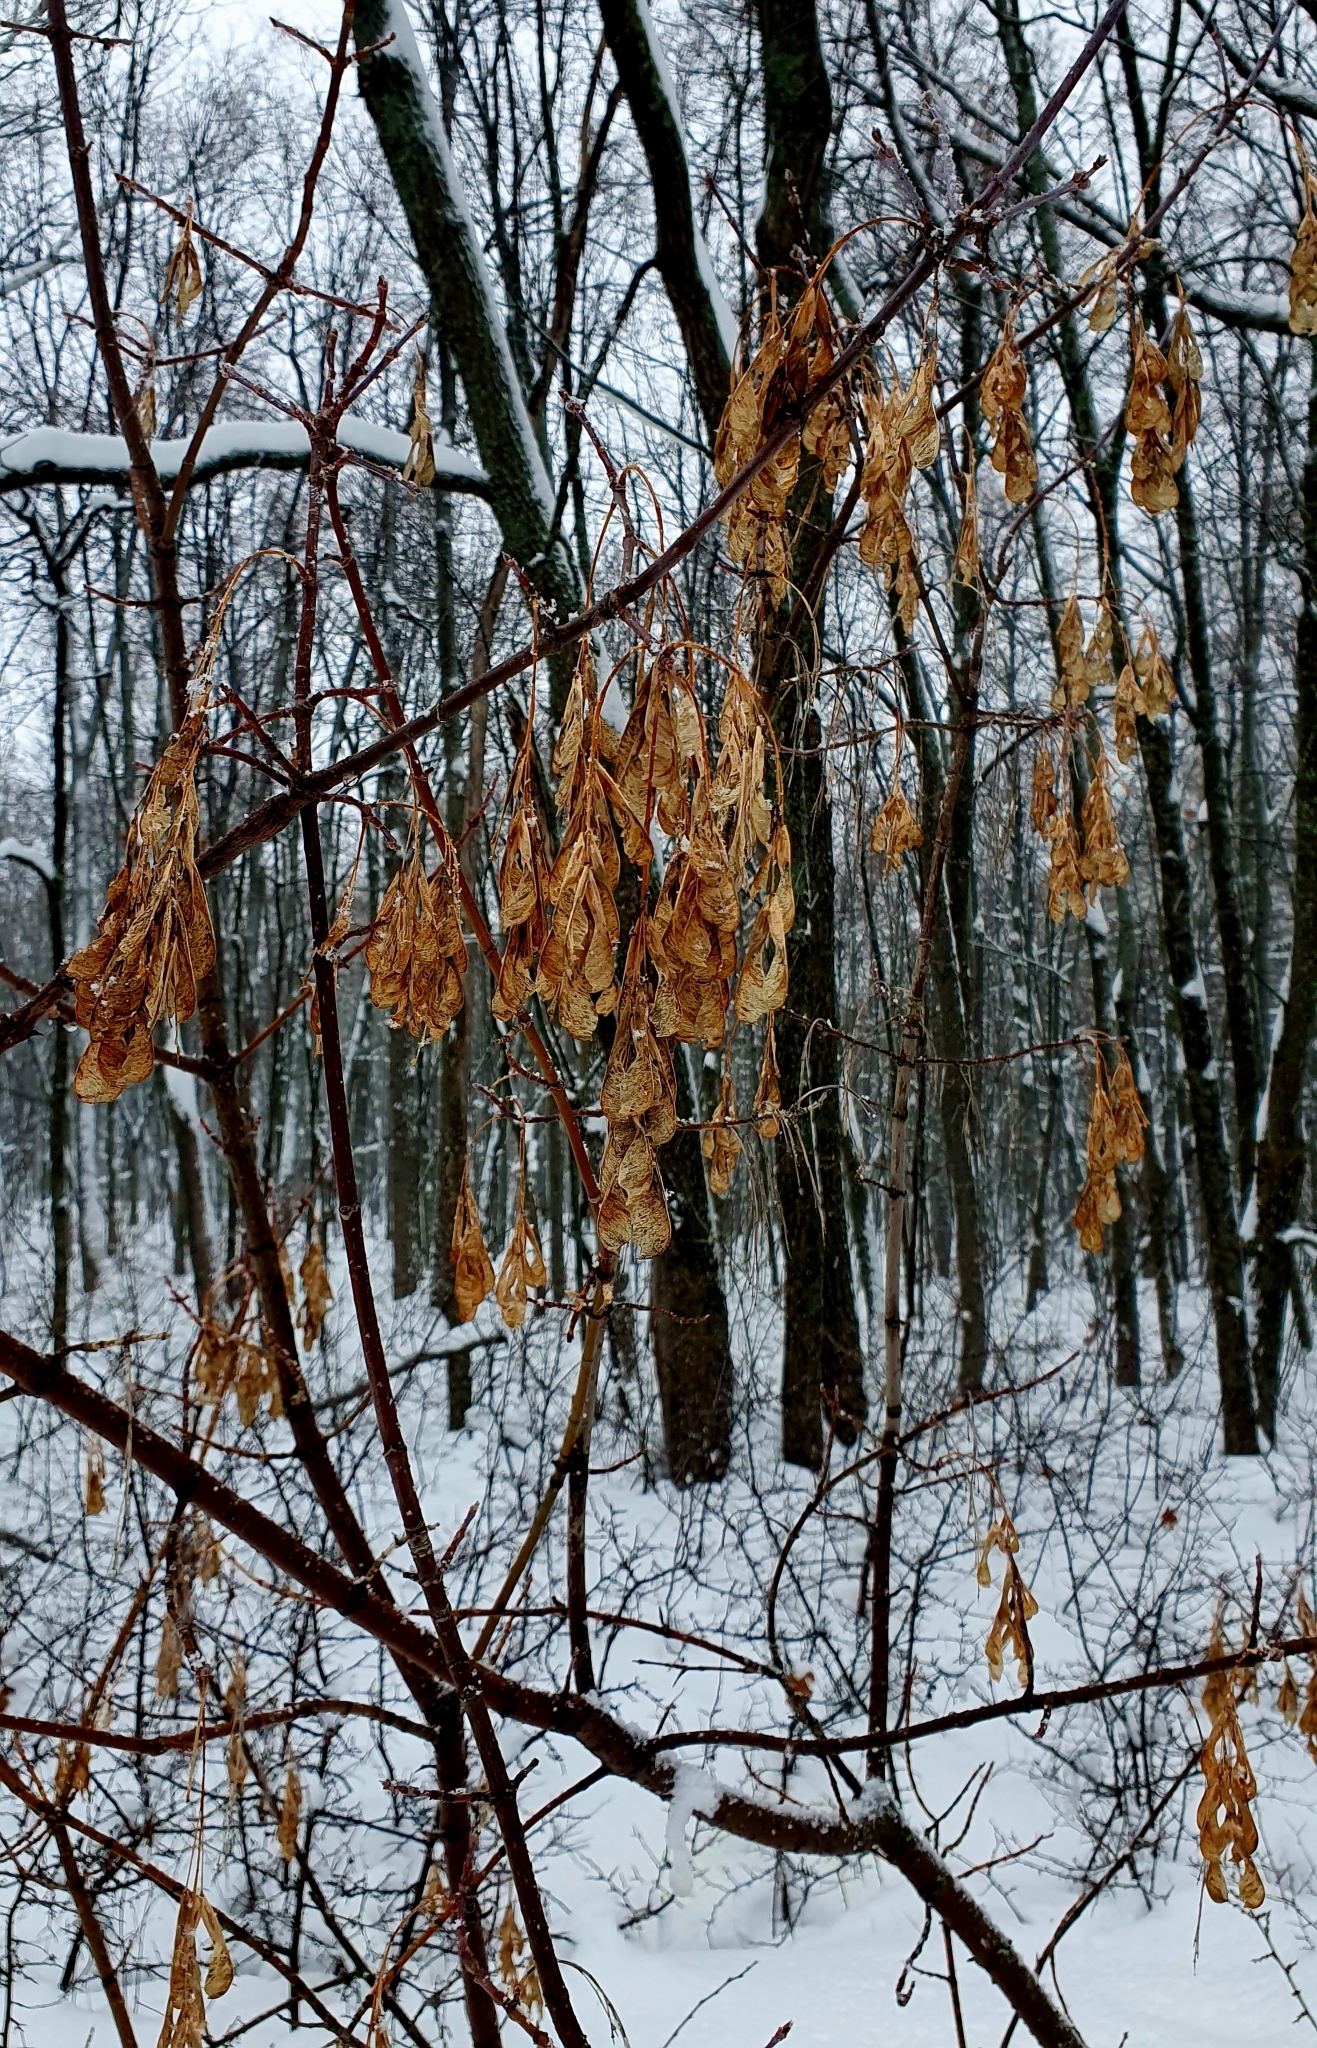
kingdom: Plantae
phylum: Tracheophyta
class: Magnoliopsida
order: Sapindales
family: Sapindaceae
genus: Acer
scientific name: Acer negundo
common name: Ashleaf maple
